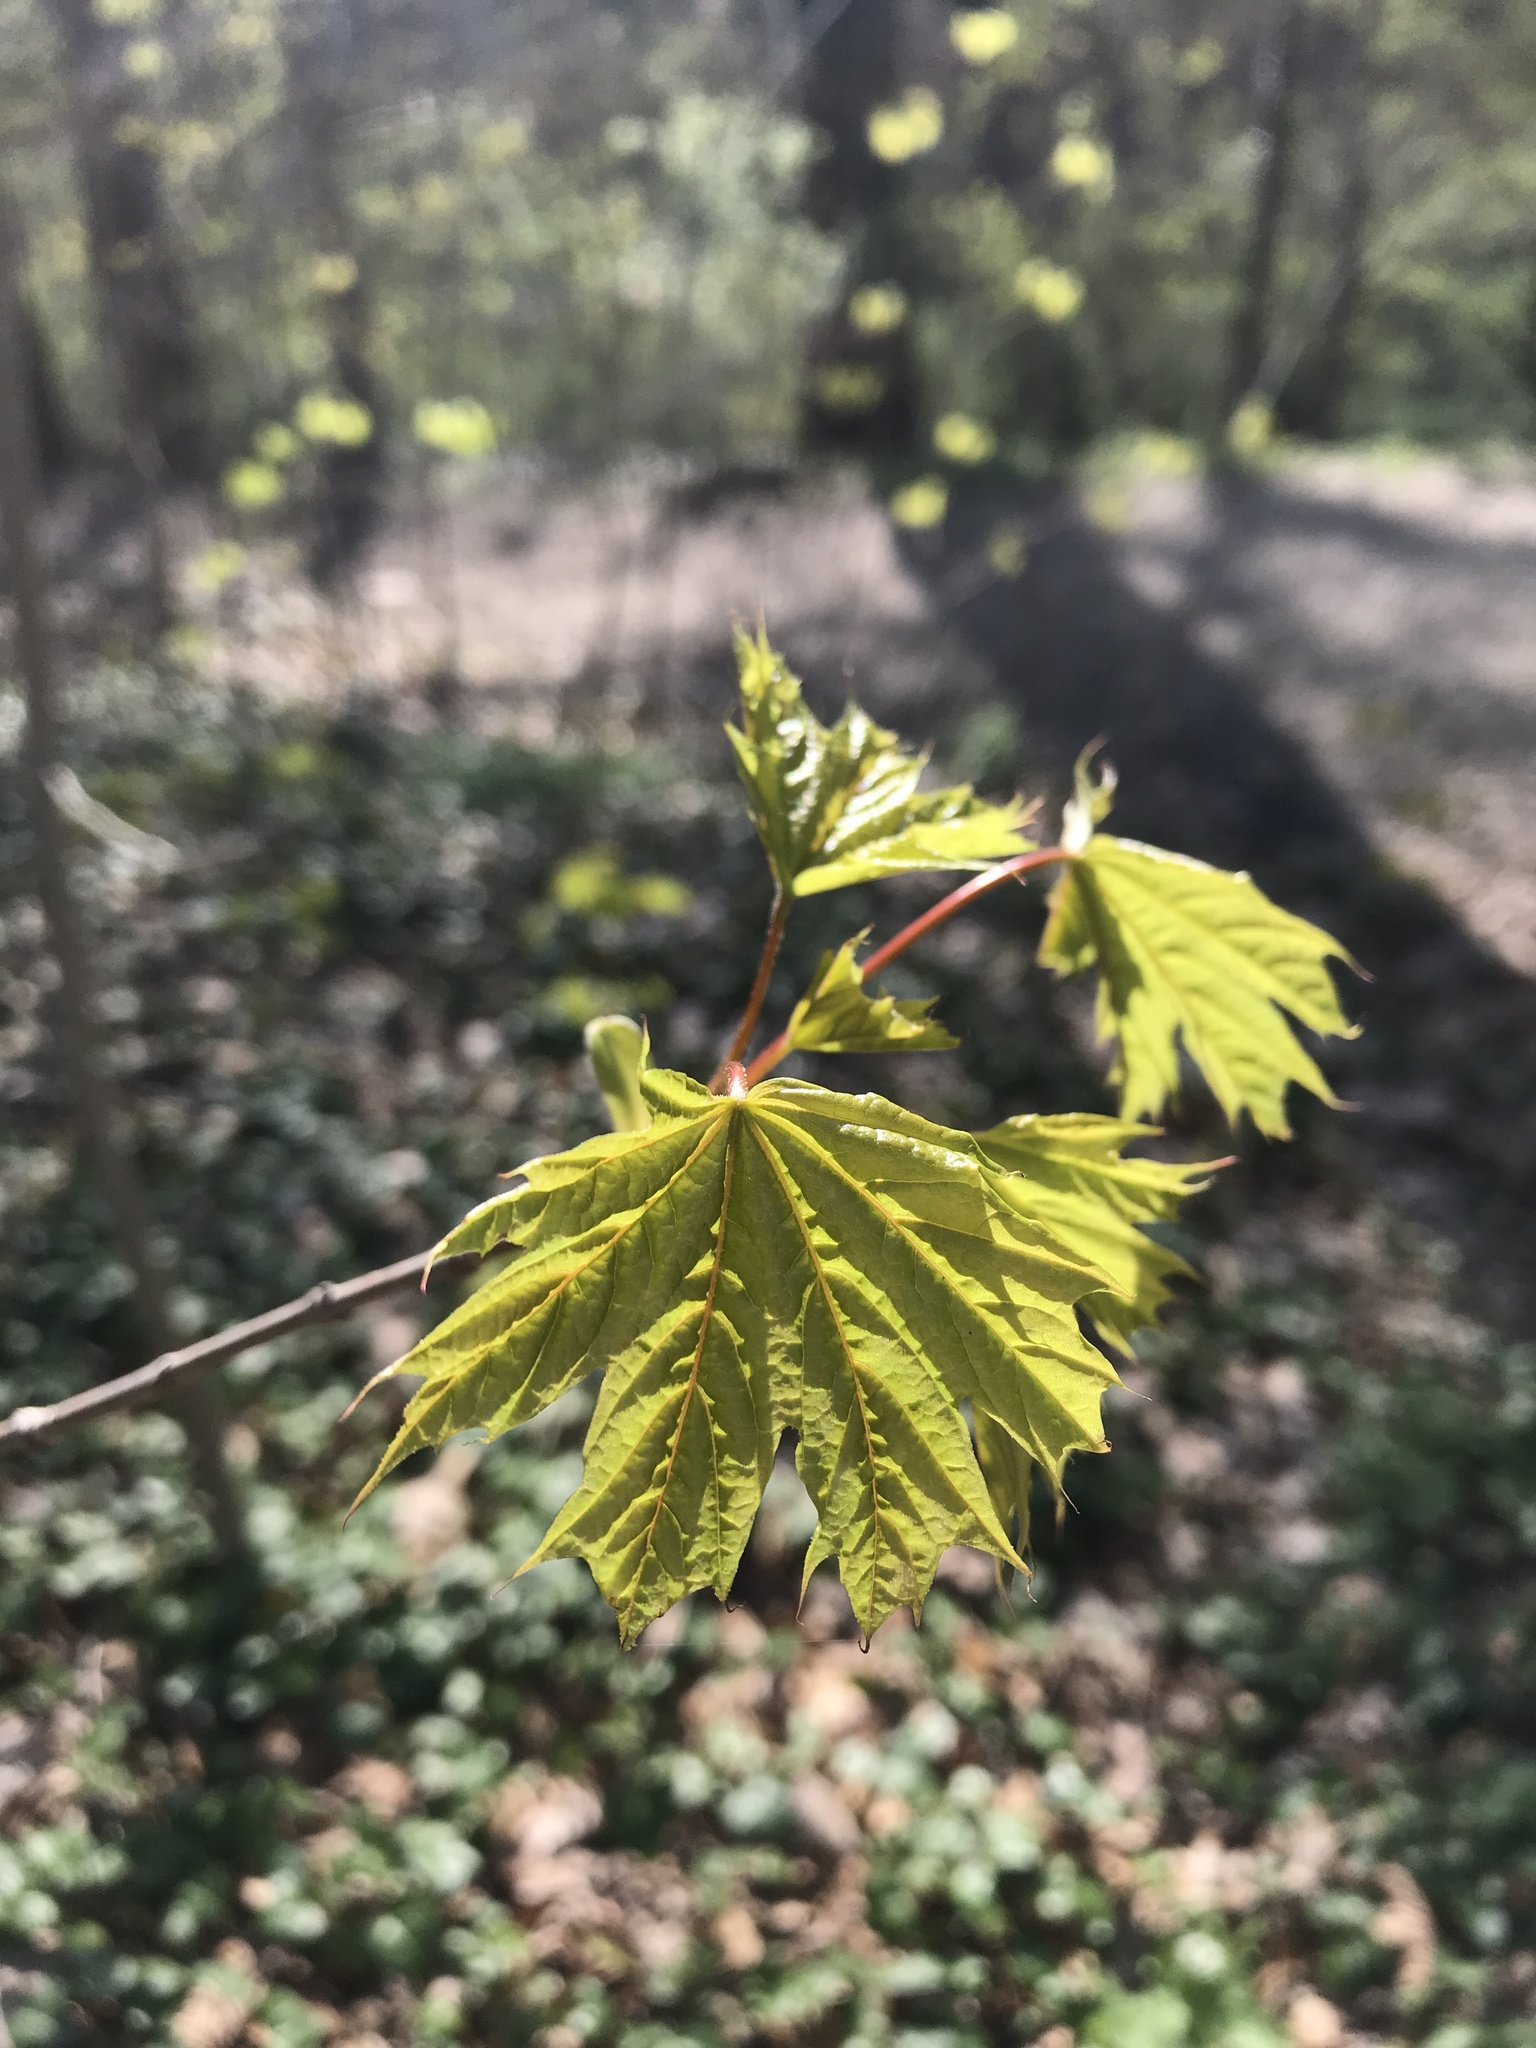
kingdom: Plantae
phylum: Tracheophyta
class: Magnoliopsida
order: Sapindales
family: Sapindaceae
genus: Acer
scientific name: Acer platanoides
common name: Norway maple
